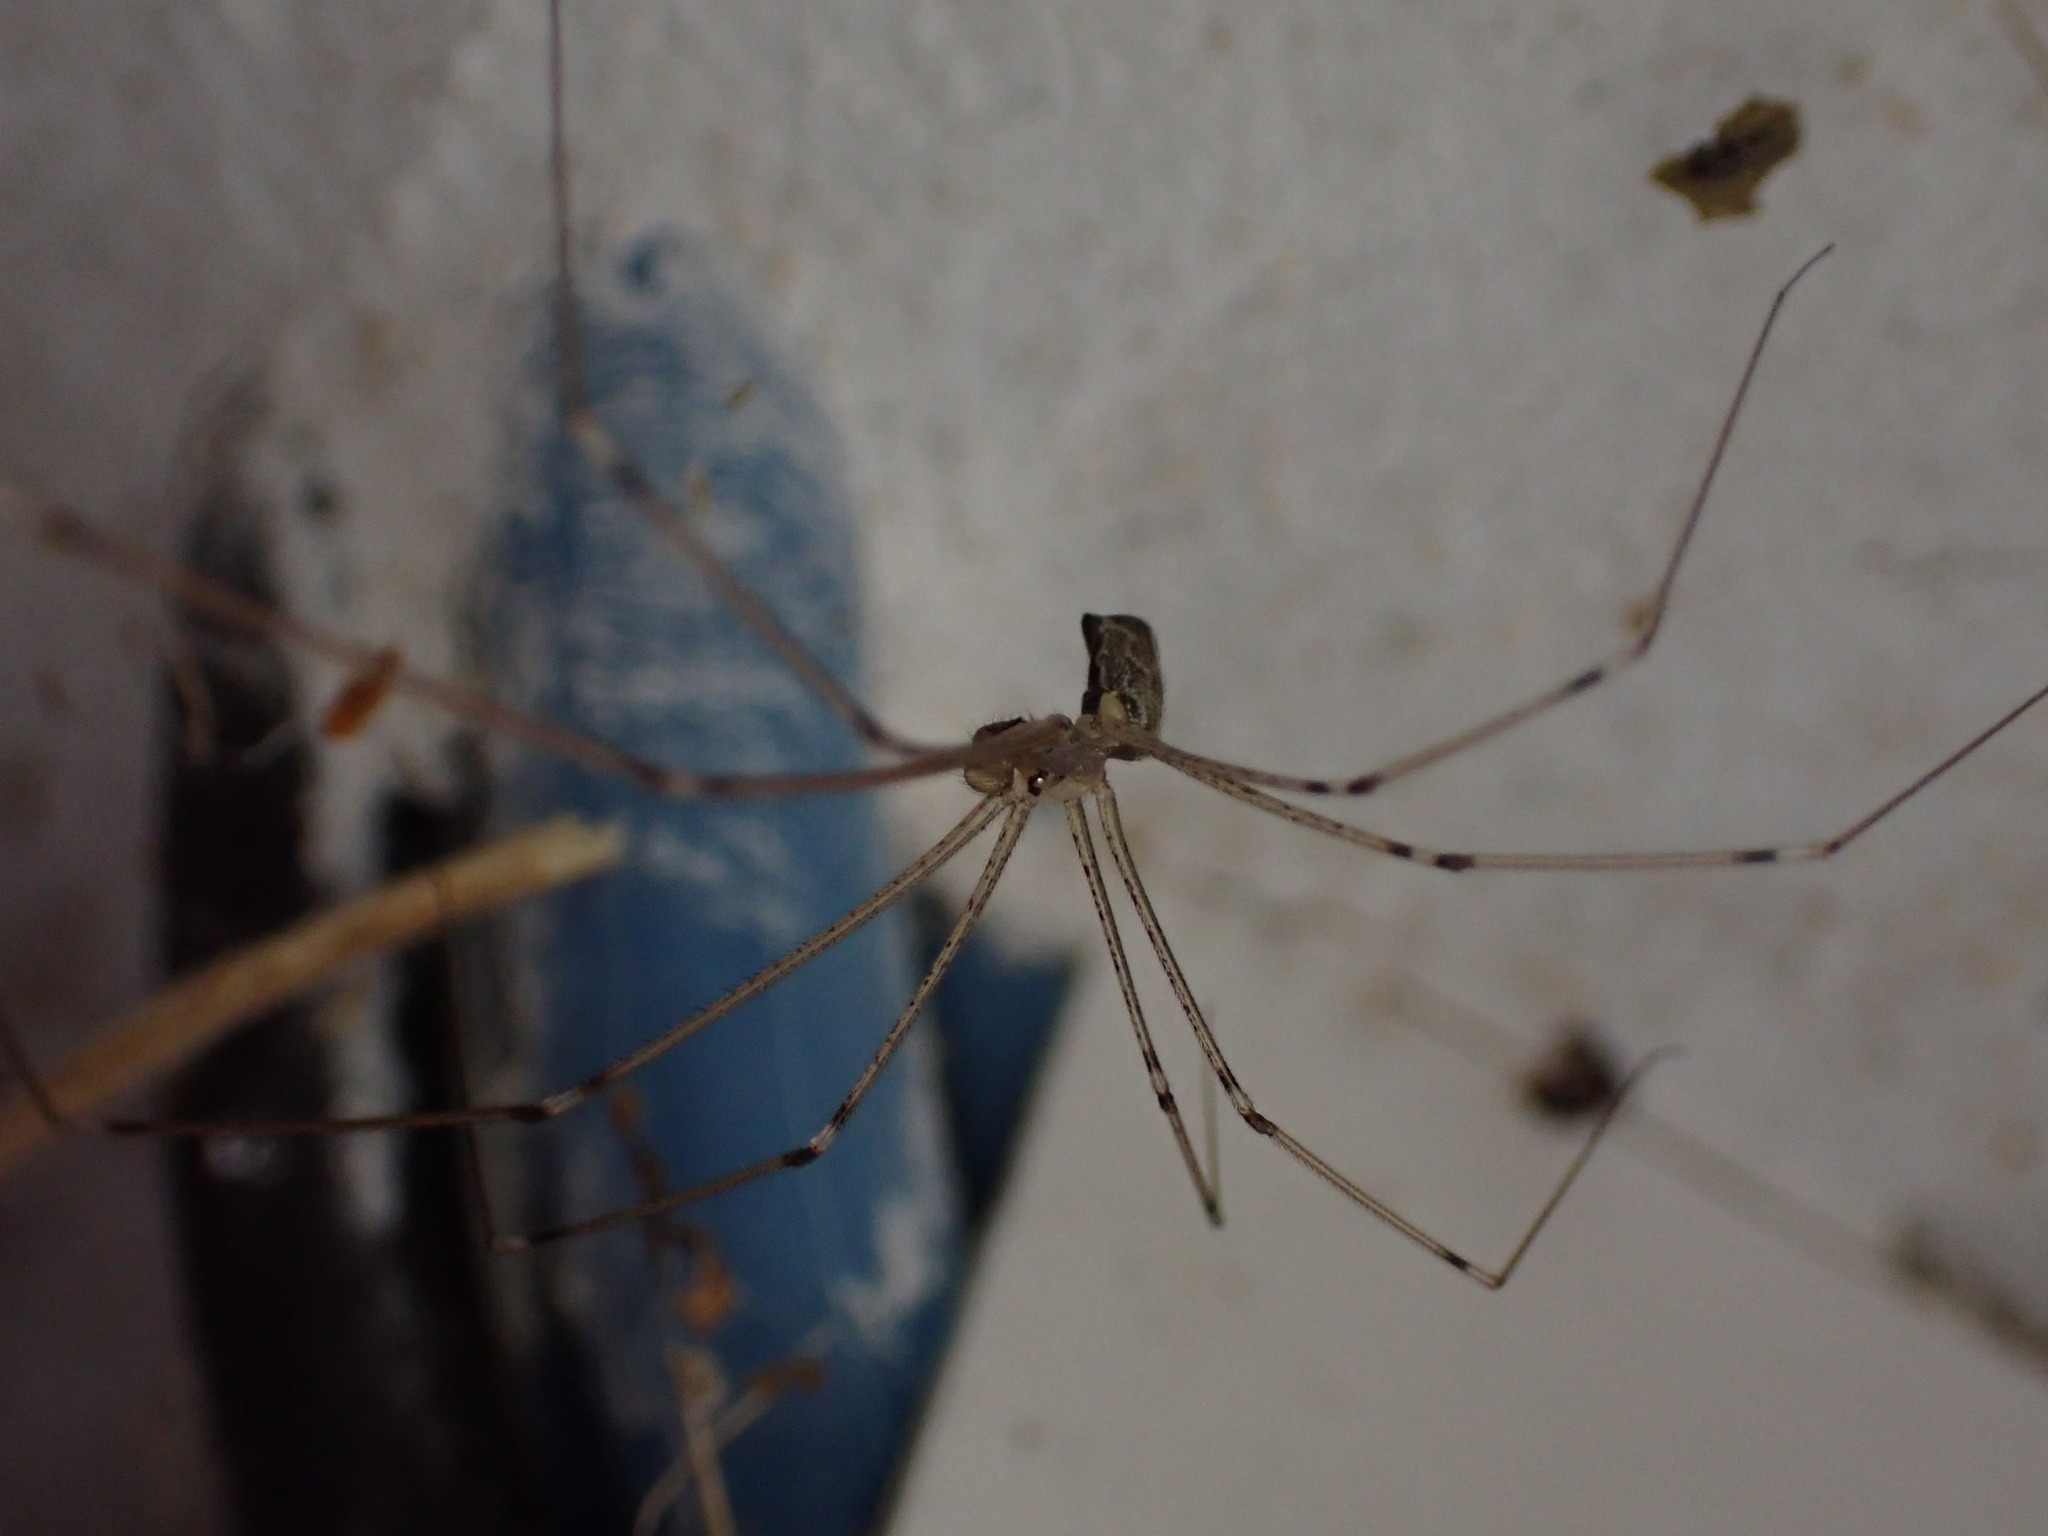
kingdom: Animalia
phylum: Arthropoda
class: Arachnida
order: Araneae
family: Pholcidae
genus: Holocnemus
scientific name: Holocnemus pluchei
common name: Marbled cellar spider
